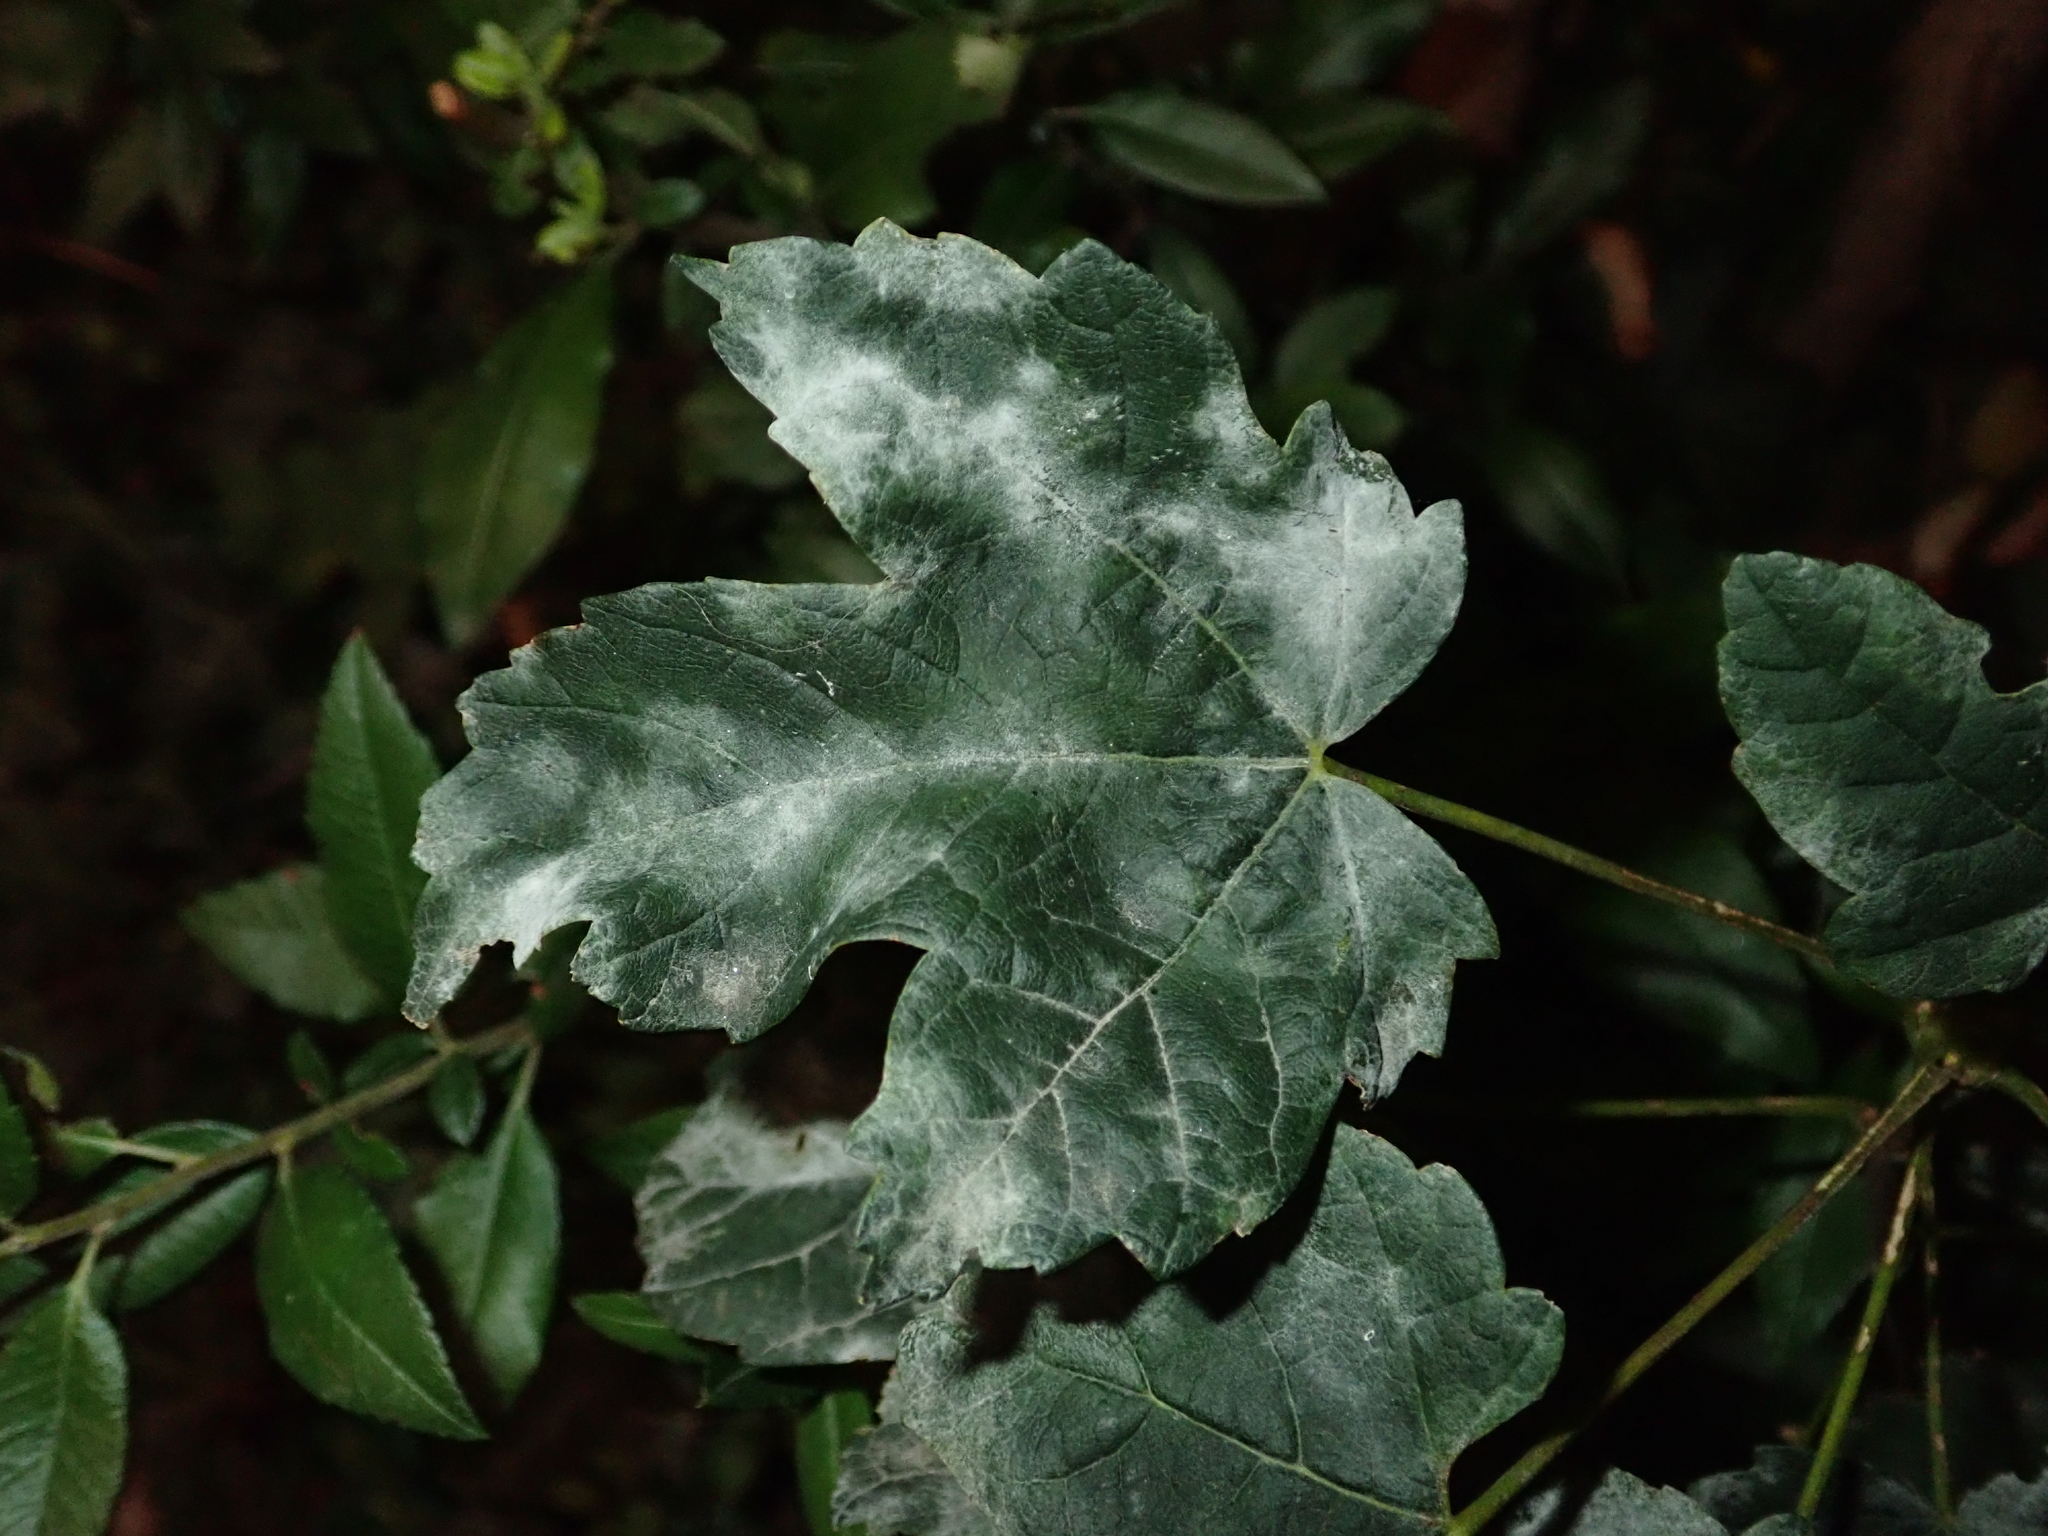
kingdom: Plantae
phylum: Tracheophyta
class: Magnoliopsida
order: Sapindales
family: Sapindaceae
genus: Acer
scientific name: Acer pseudoplatanus
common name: Sycamore
